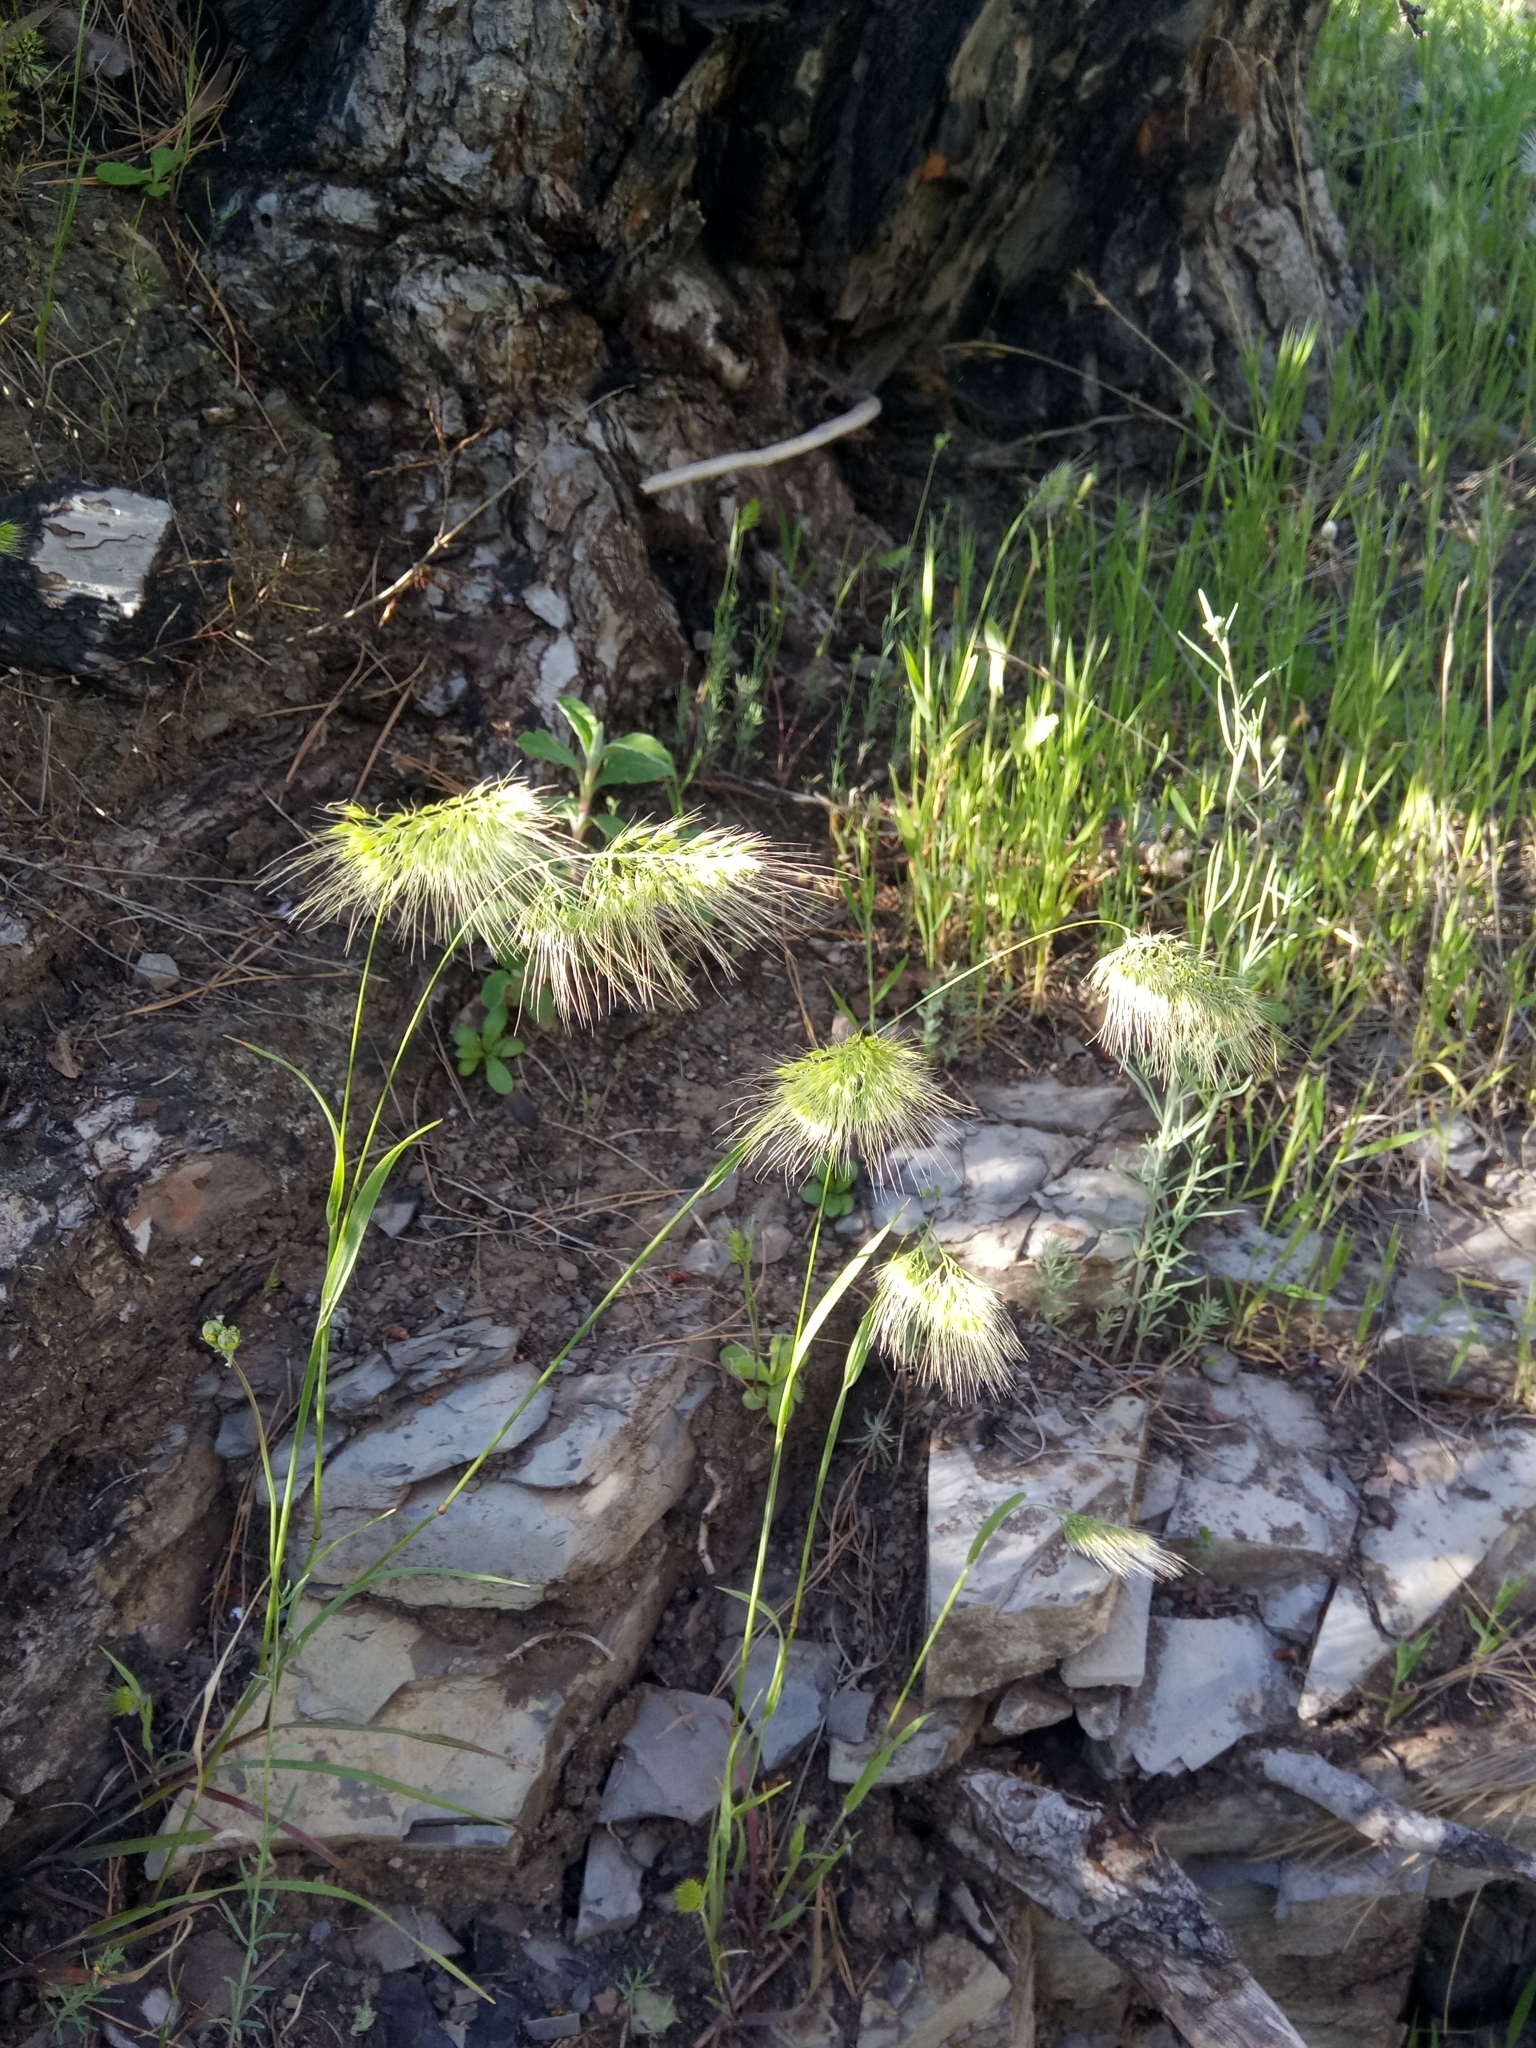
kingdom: Plantae
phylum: Tracheophyta
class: Liliopsida
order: Poales
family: Poaceae
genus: Cynosurus
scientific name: Cynosurus echinatus
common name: Rough dog's-tail
